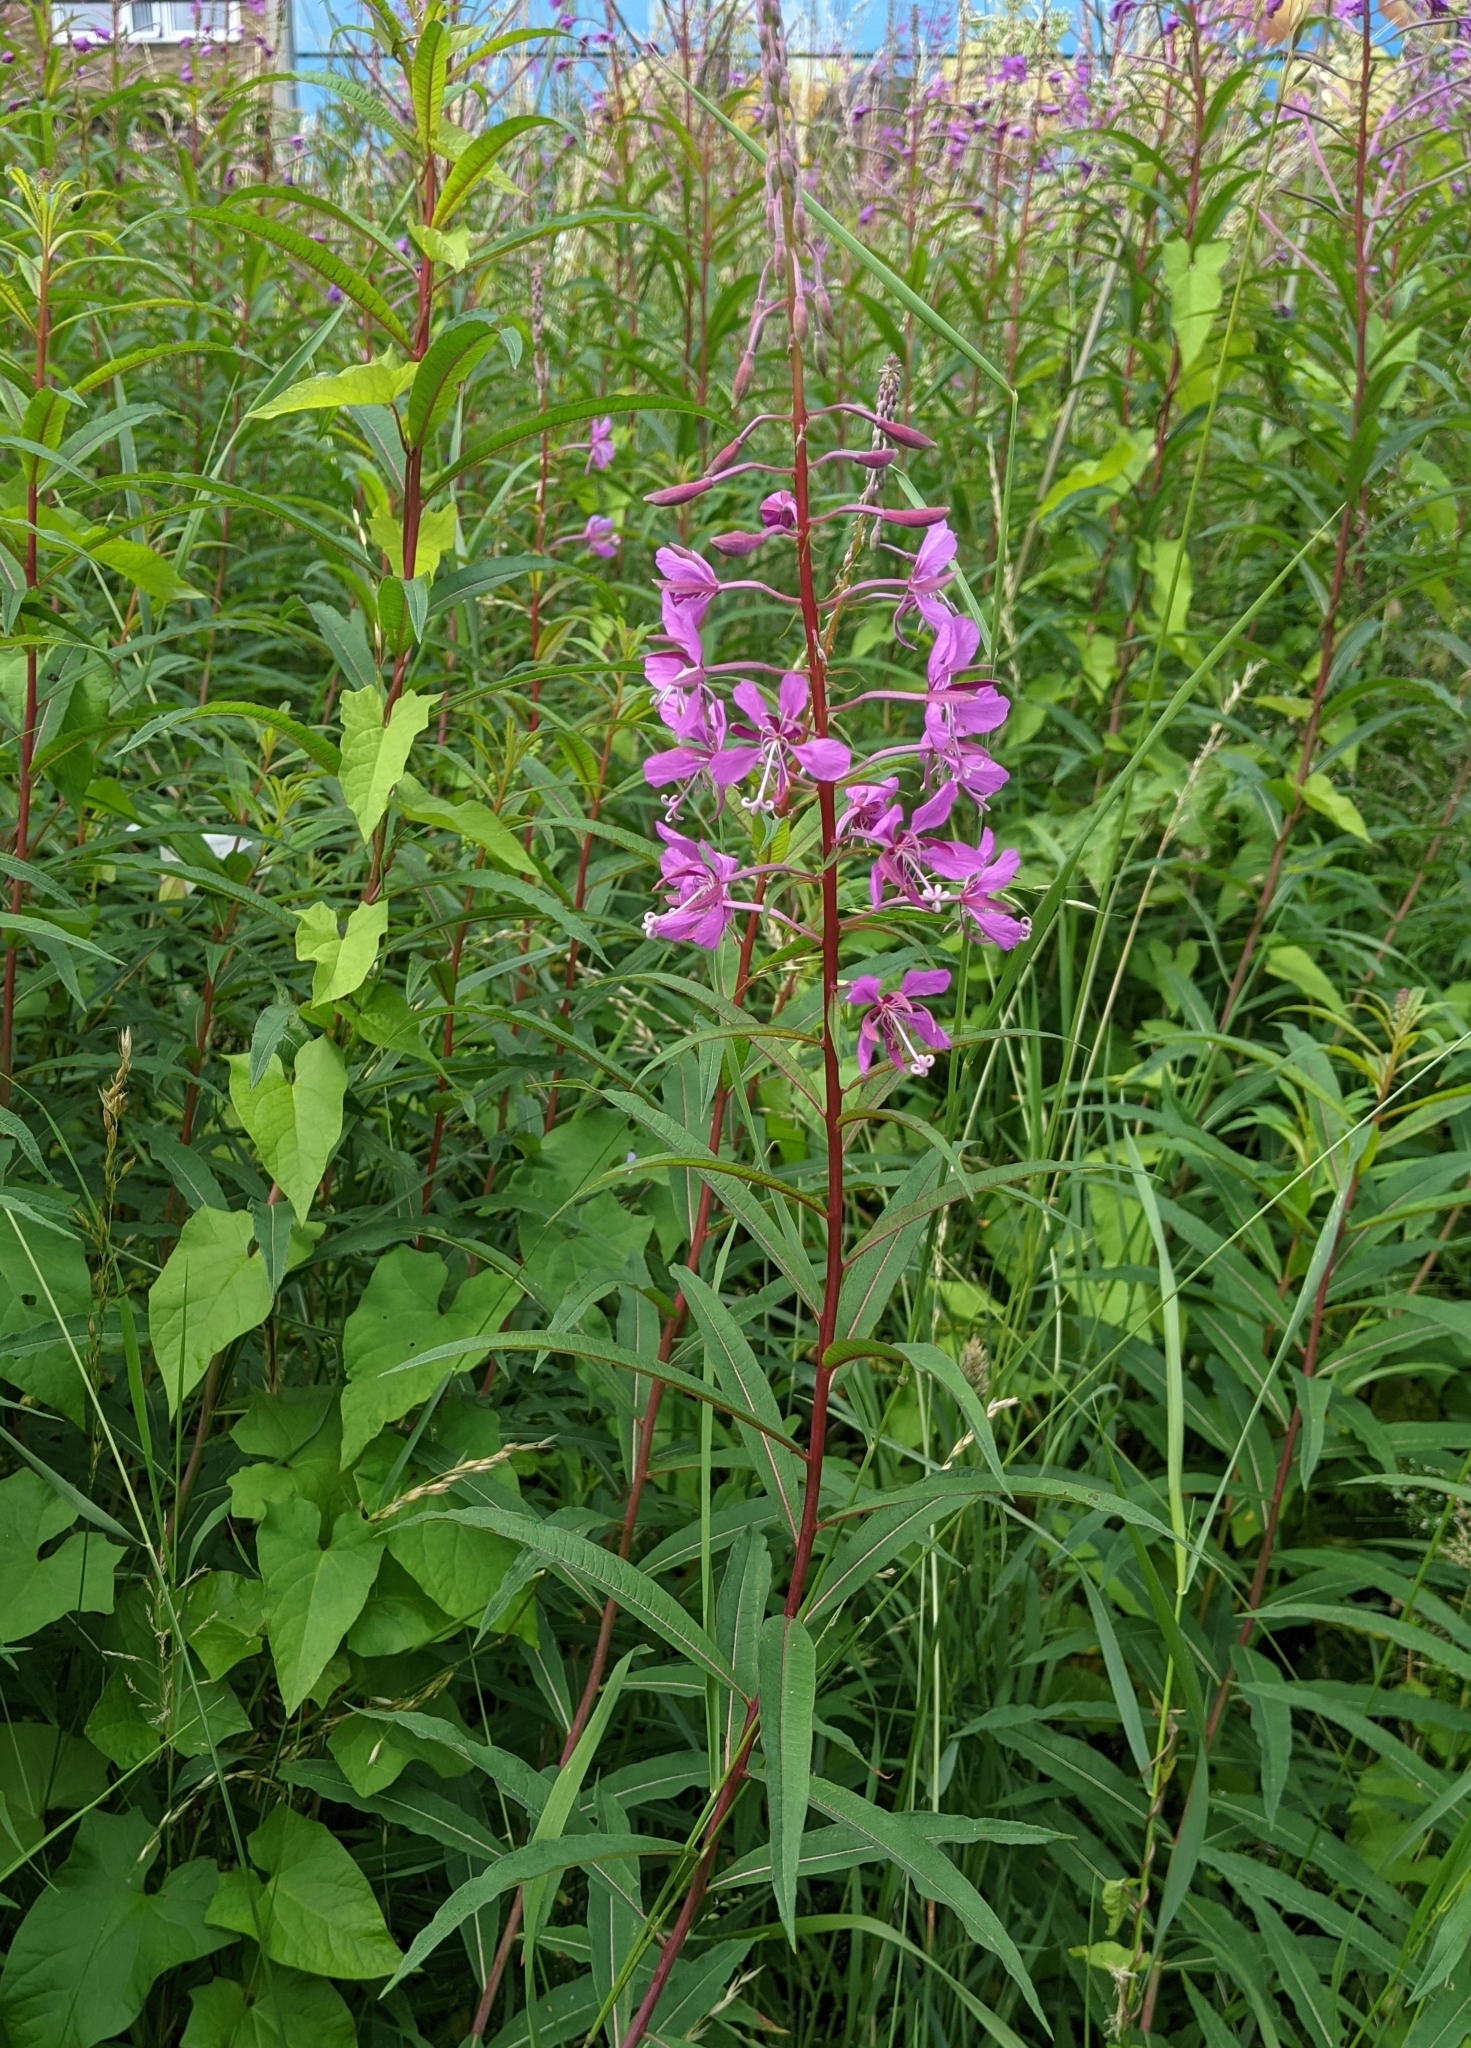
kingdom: Plantae
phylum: Tracheophyta
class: Magnoliopsida
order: Myrtales
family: Onagraceae
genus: Chamaenerion
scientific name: Chamaenerion angustifolium
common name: Fireweed
